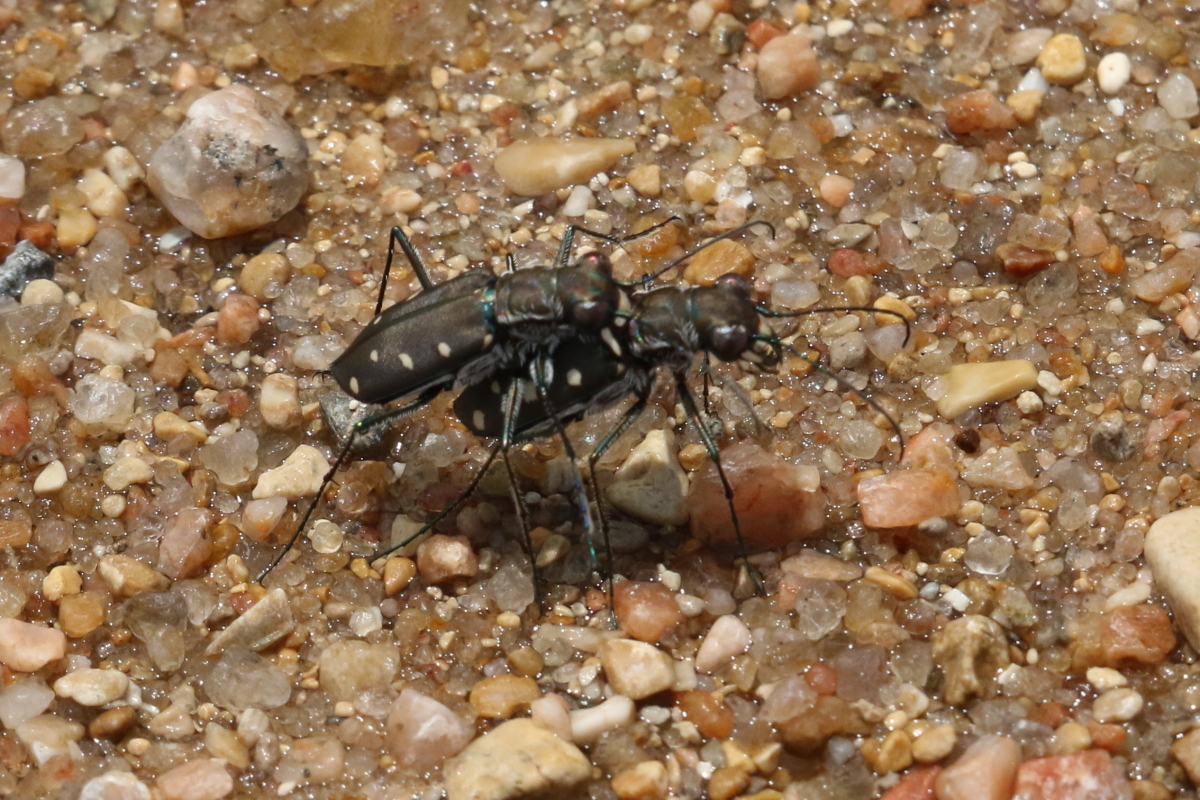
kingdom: Animalia
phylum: Arthropoda
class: Insecta
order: Coleoptera
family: Carabidae
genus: Cicindela
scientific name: Cicindela ocellata
